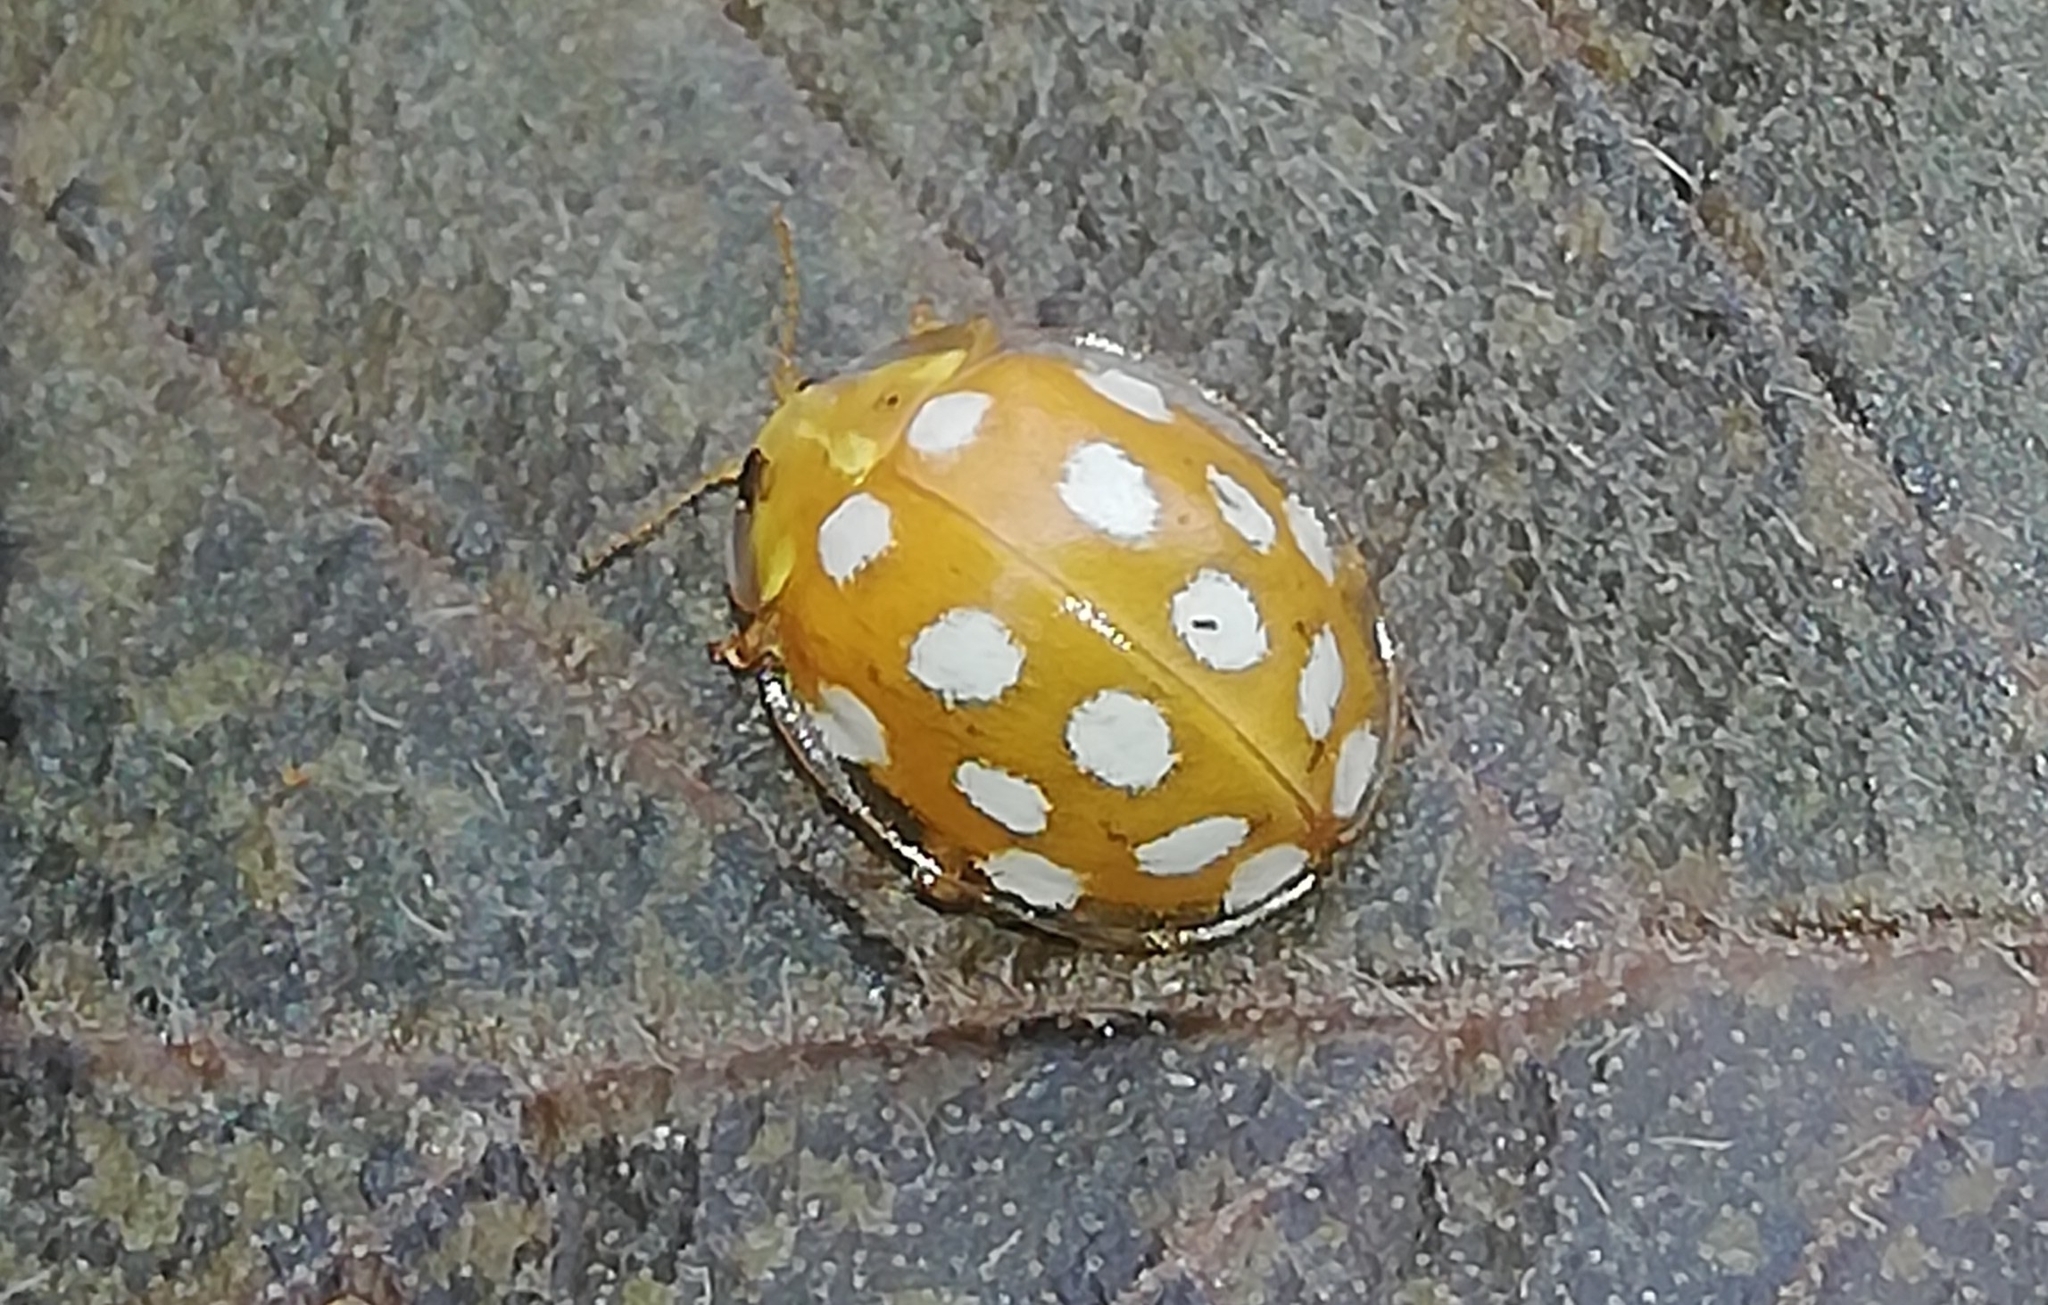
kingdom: Animalia
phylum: Arthropoda
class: Insecta
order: Coleoptera
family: Coccinellidae
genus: Halyzia
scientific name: Halyzia sedecimguttata
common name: Orange ladybird
